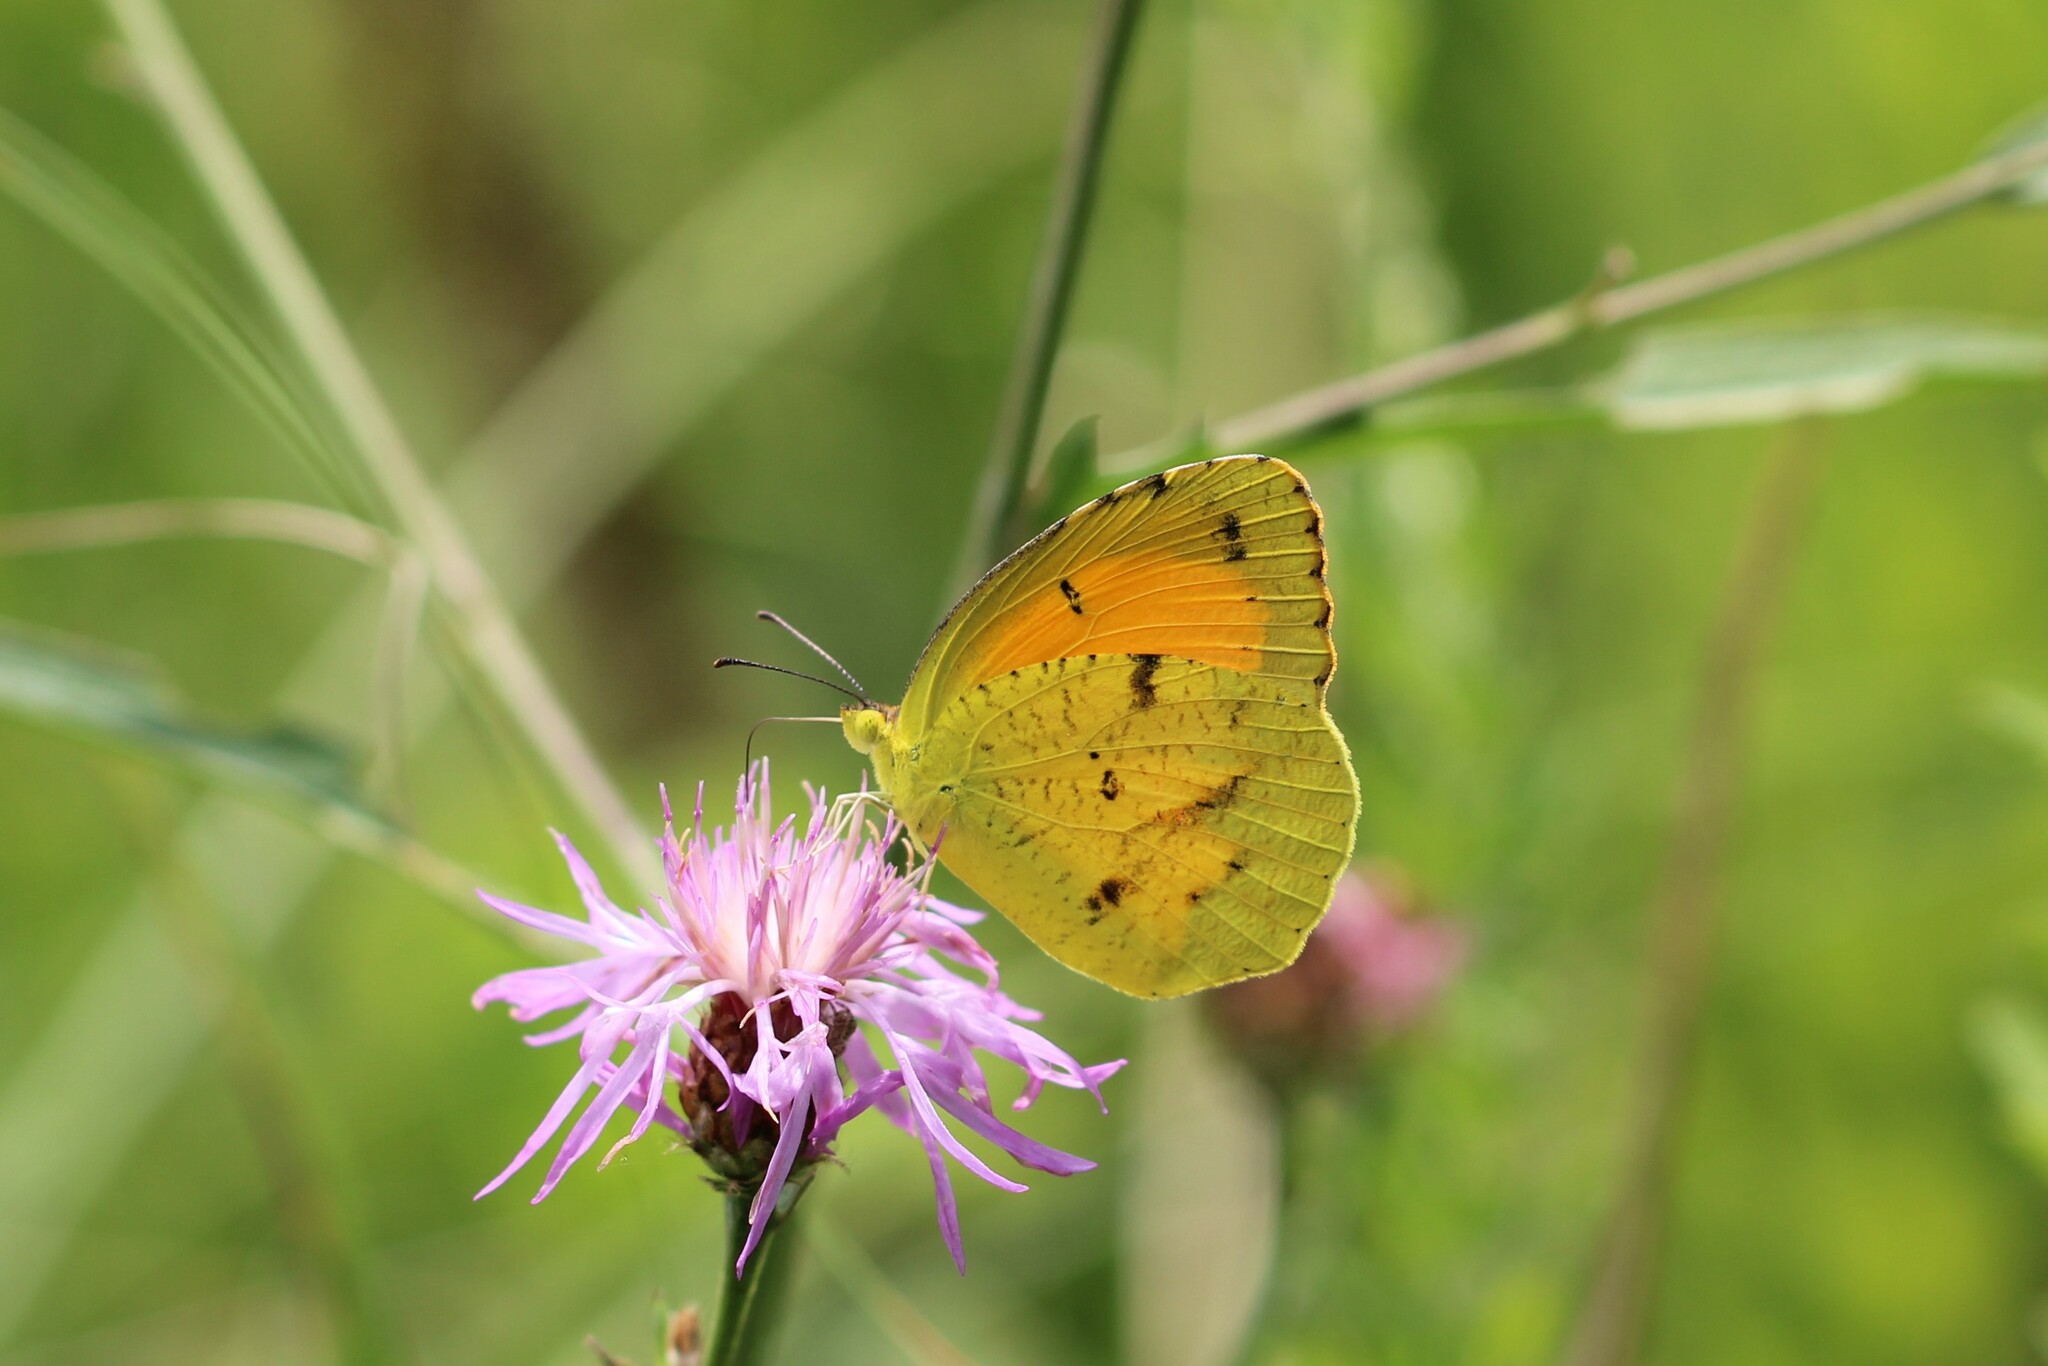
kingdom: Animalia
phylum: Arthropoda
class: Insecta
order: Lepidoptera
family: Pieridae
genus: Abaeis
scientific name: Abaeis nicippe
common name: Sleepy orange
